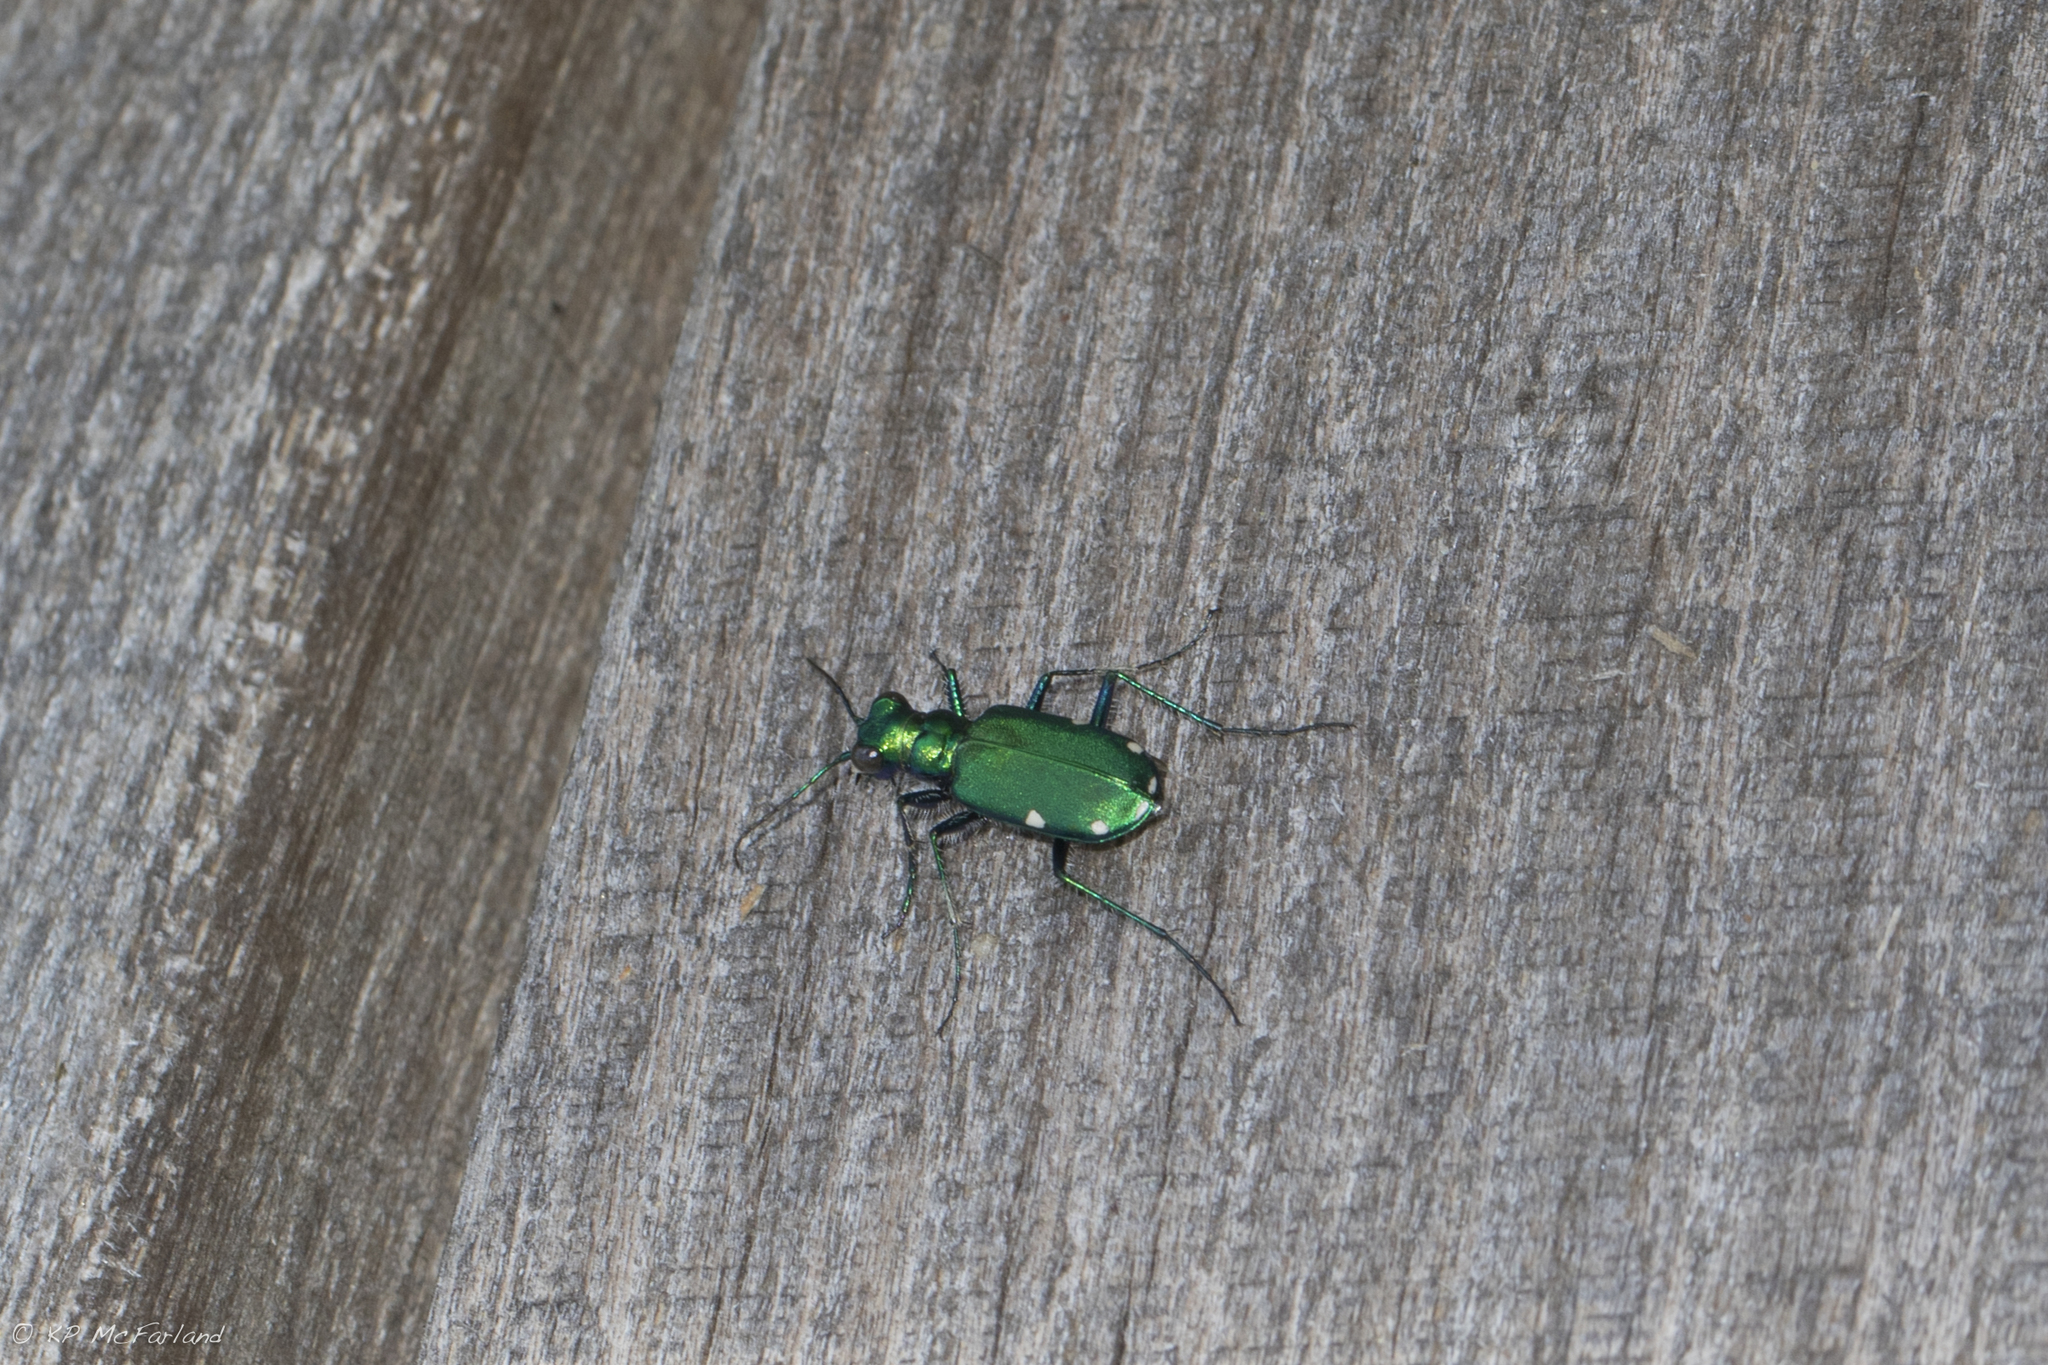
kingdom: Animalia
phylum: Arthropoda
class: Insecta
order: Coleoptera
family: Carabidae
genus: Cicindela
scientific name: Cicindela sexguttata
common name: Six-spotted tiger beetle
